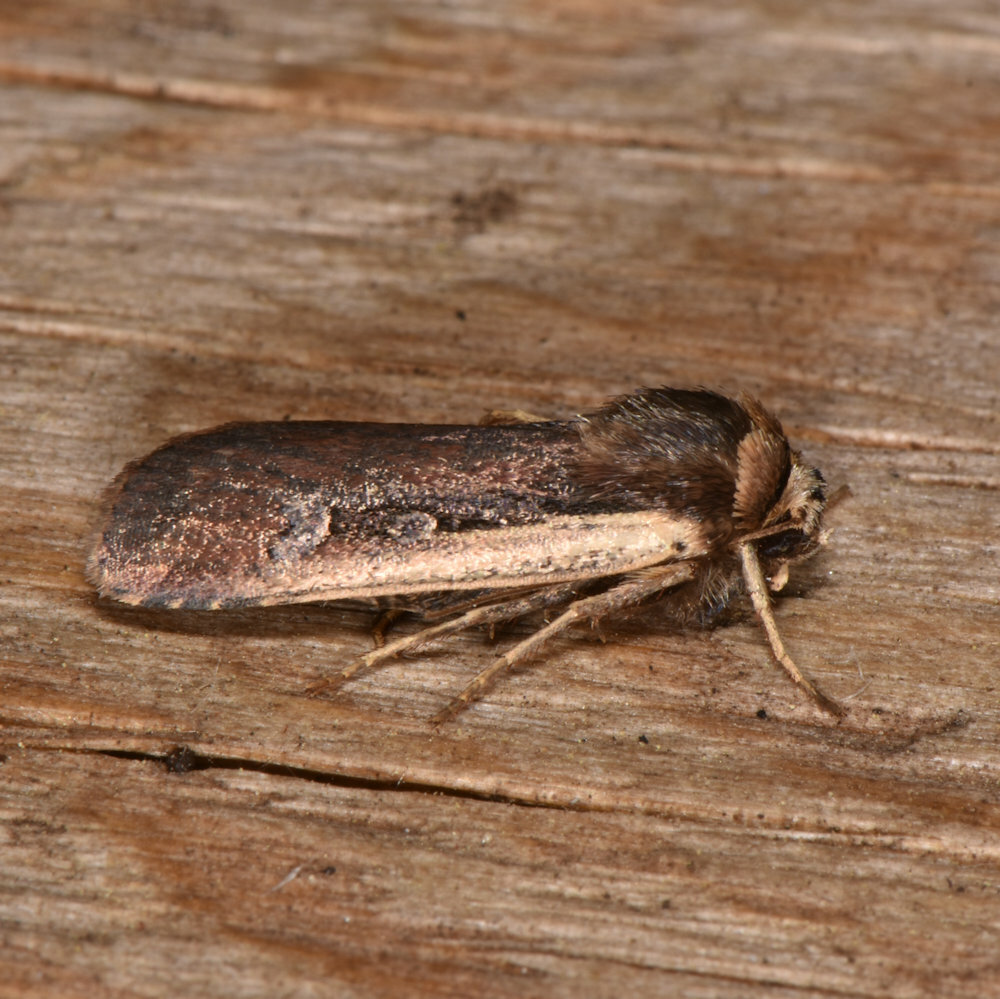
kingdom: Animalia
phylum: Arthropoda
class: Insecta
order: Lepidoptera
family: Noctuidae
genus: Ochropleura
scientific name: Ochropleura implecta
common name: Flame-shouldered dart
